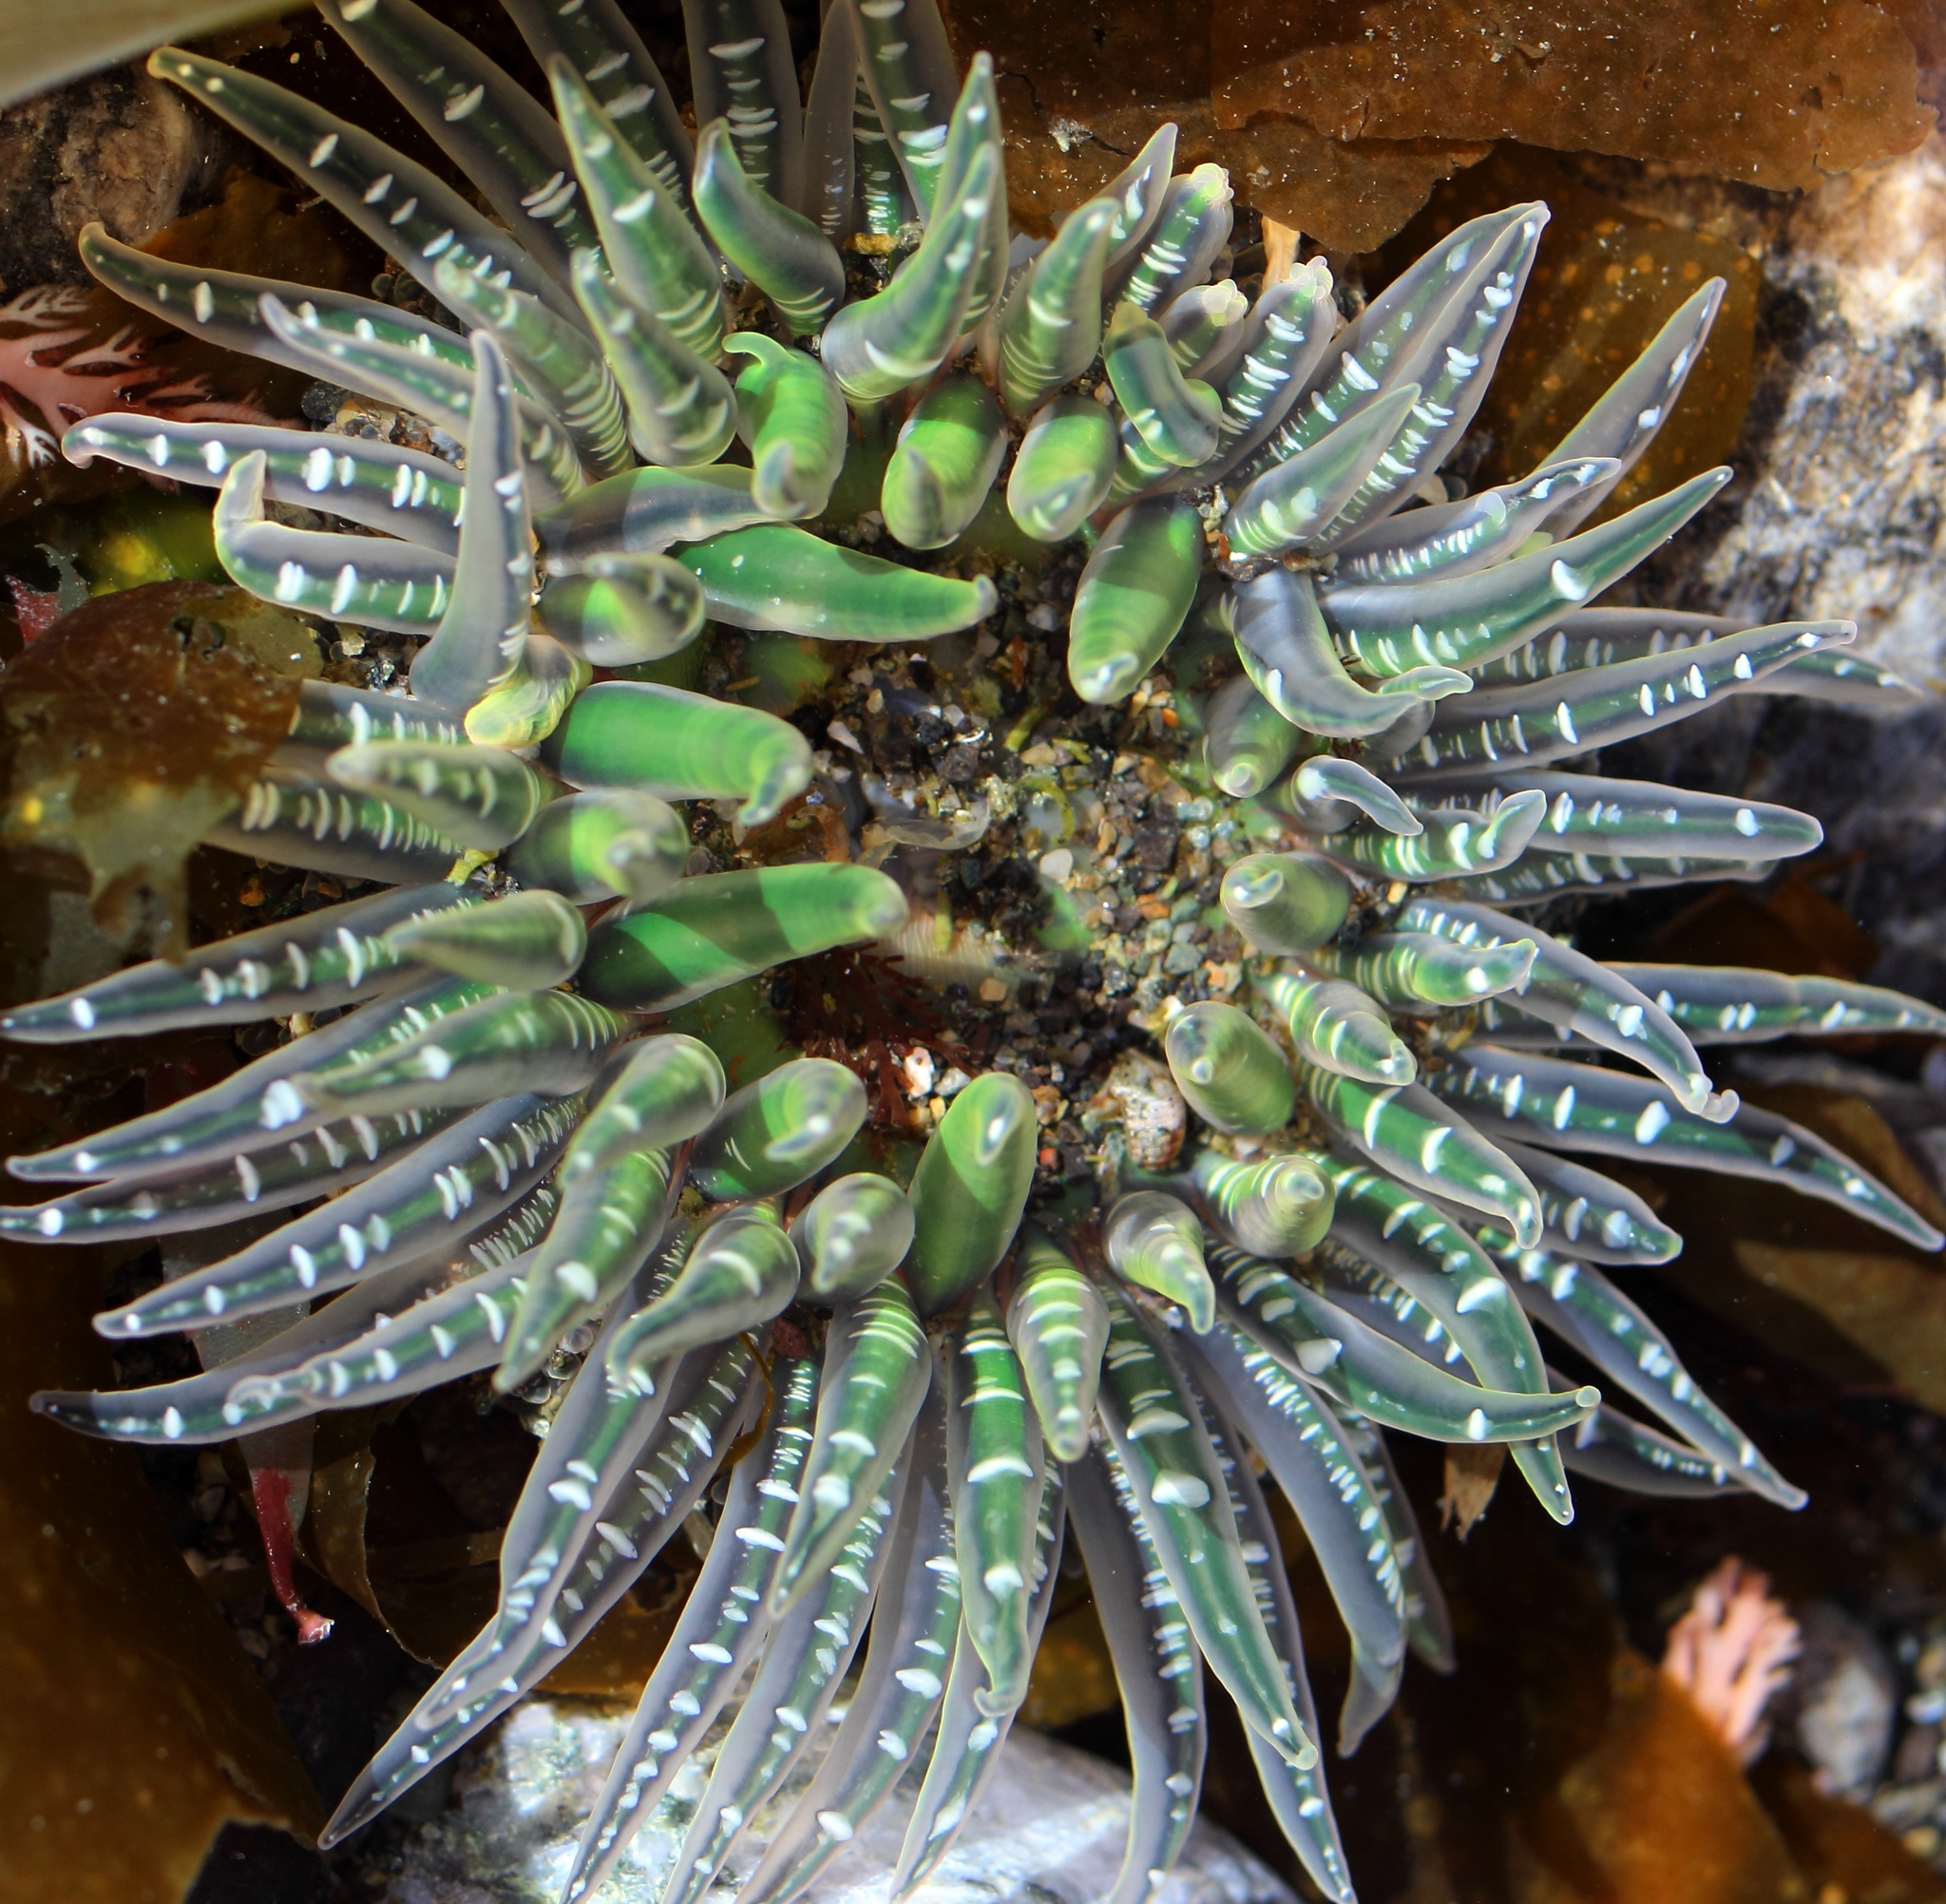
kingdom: Animalia
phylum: Cnidaria
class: Anthozoa
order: Actiniaria
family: Actiniidae
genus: Anthopleura
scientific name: Anthopleura artemisia
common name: Buried sea anemone
